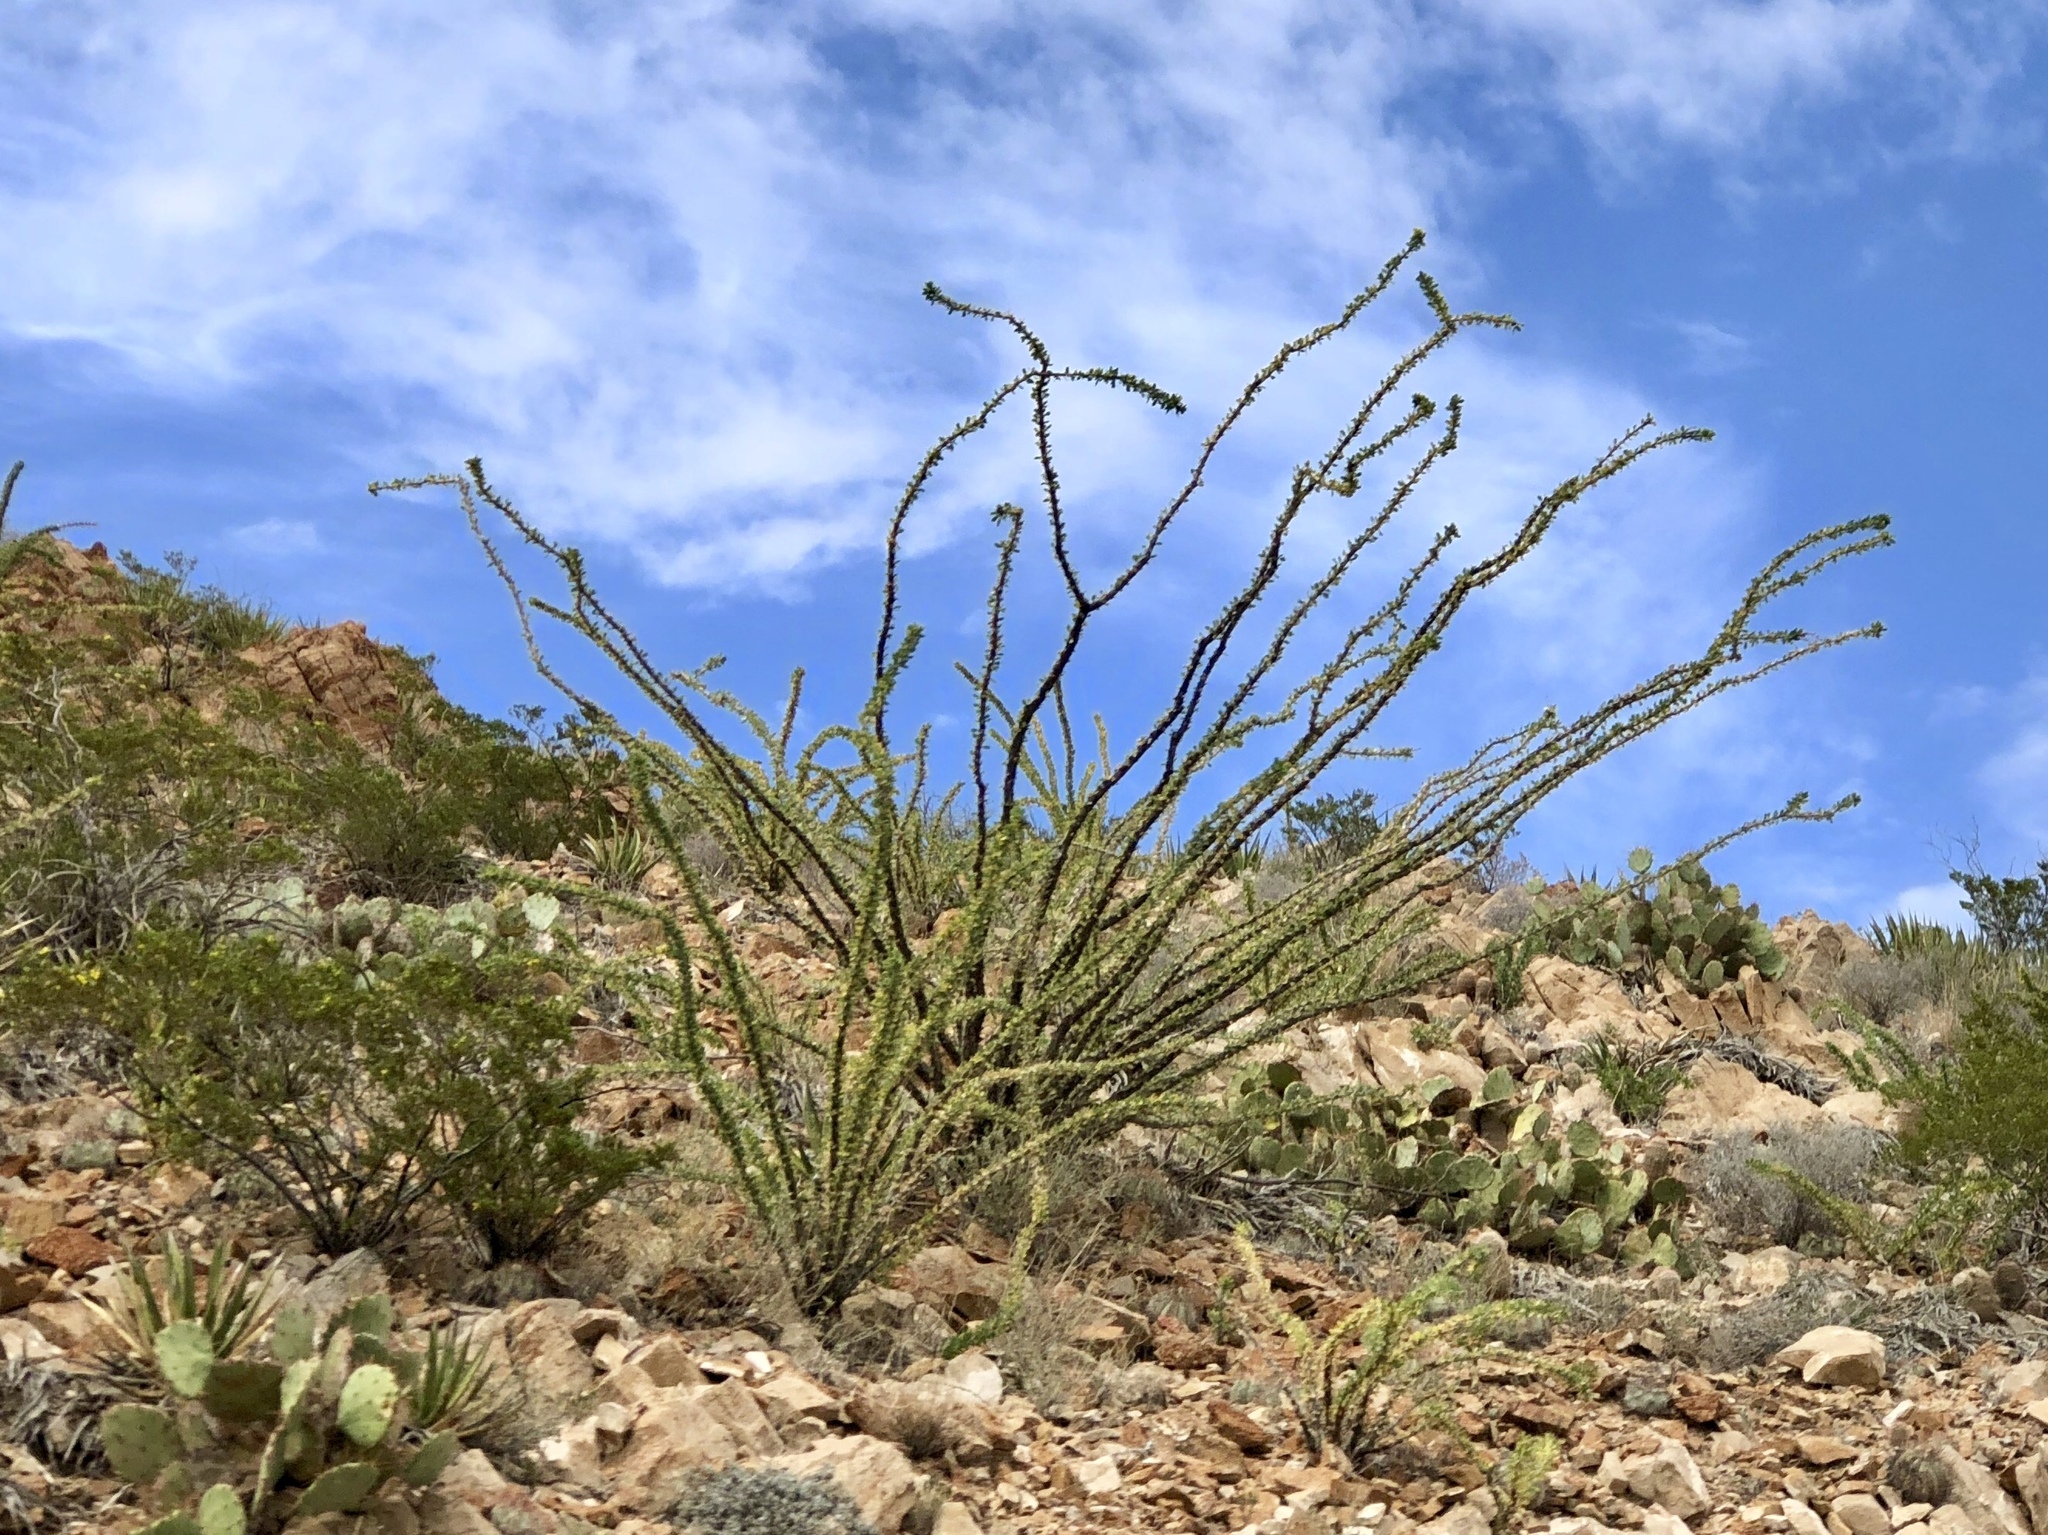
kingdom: Plantae
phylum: Tracheophyta
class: Magnoliopsida
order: Ericales
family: Fouquieriaceae
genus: Fouquieria
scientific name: Fouquieria splendens
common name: Vine-cactus
